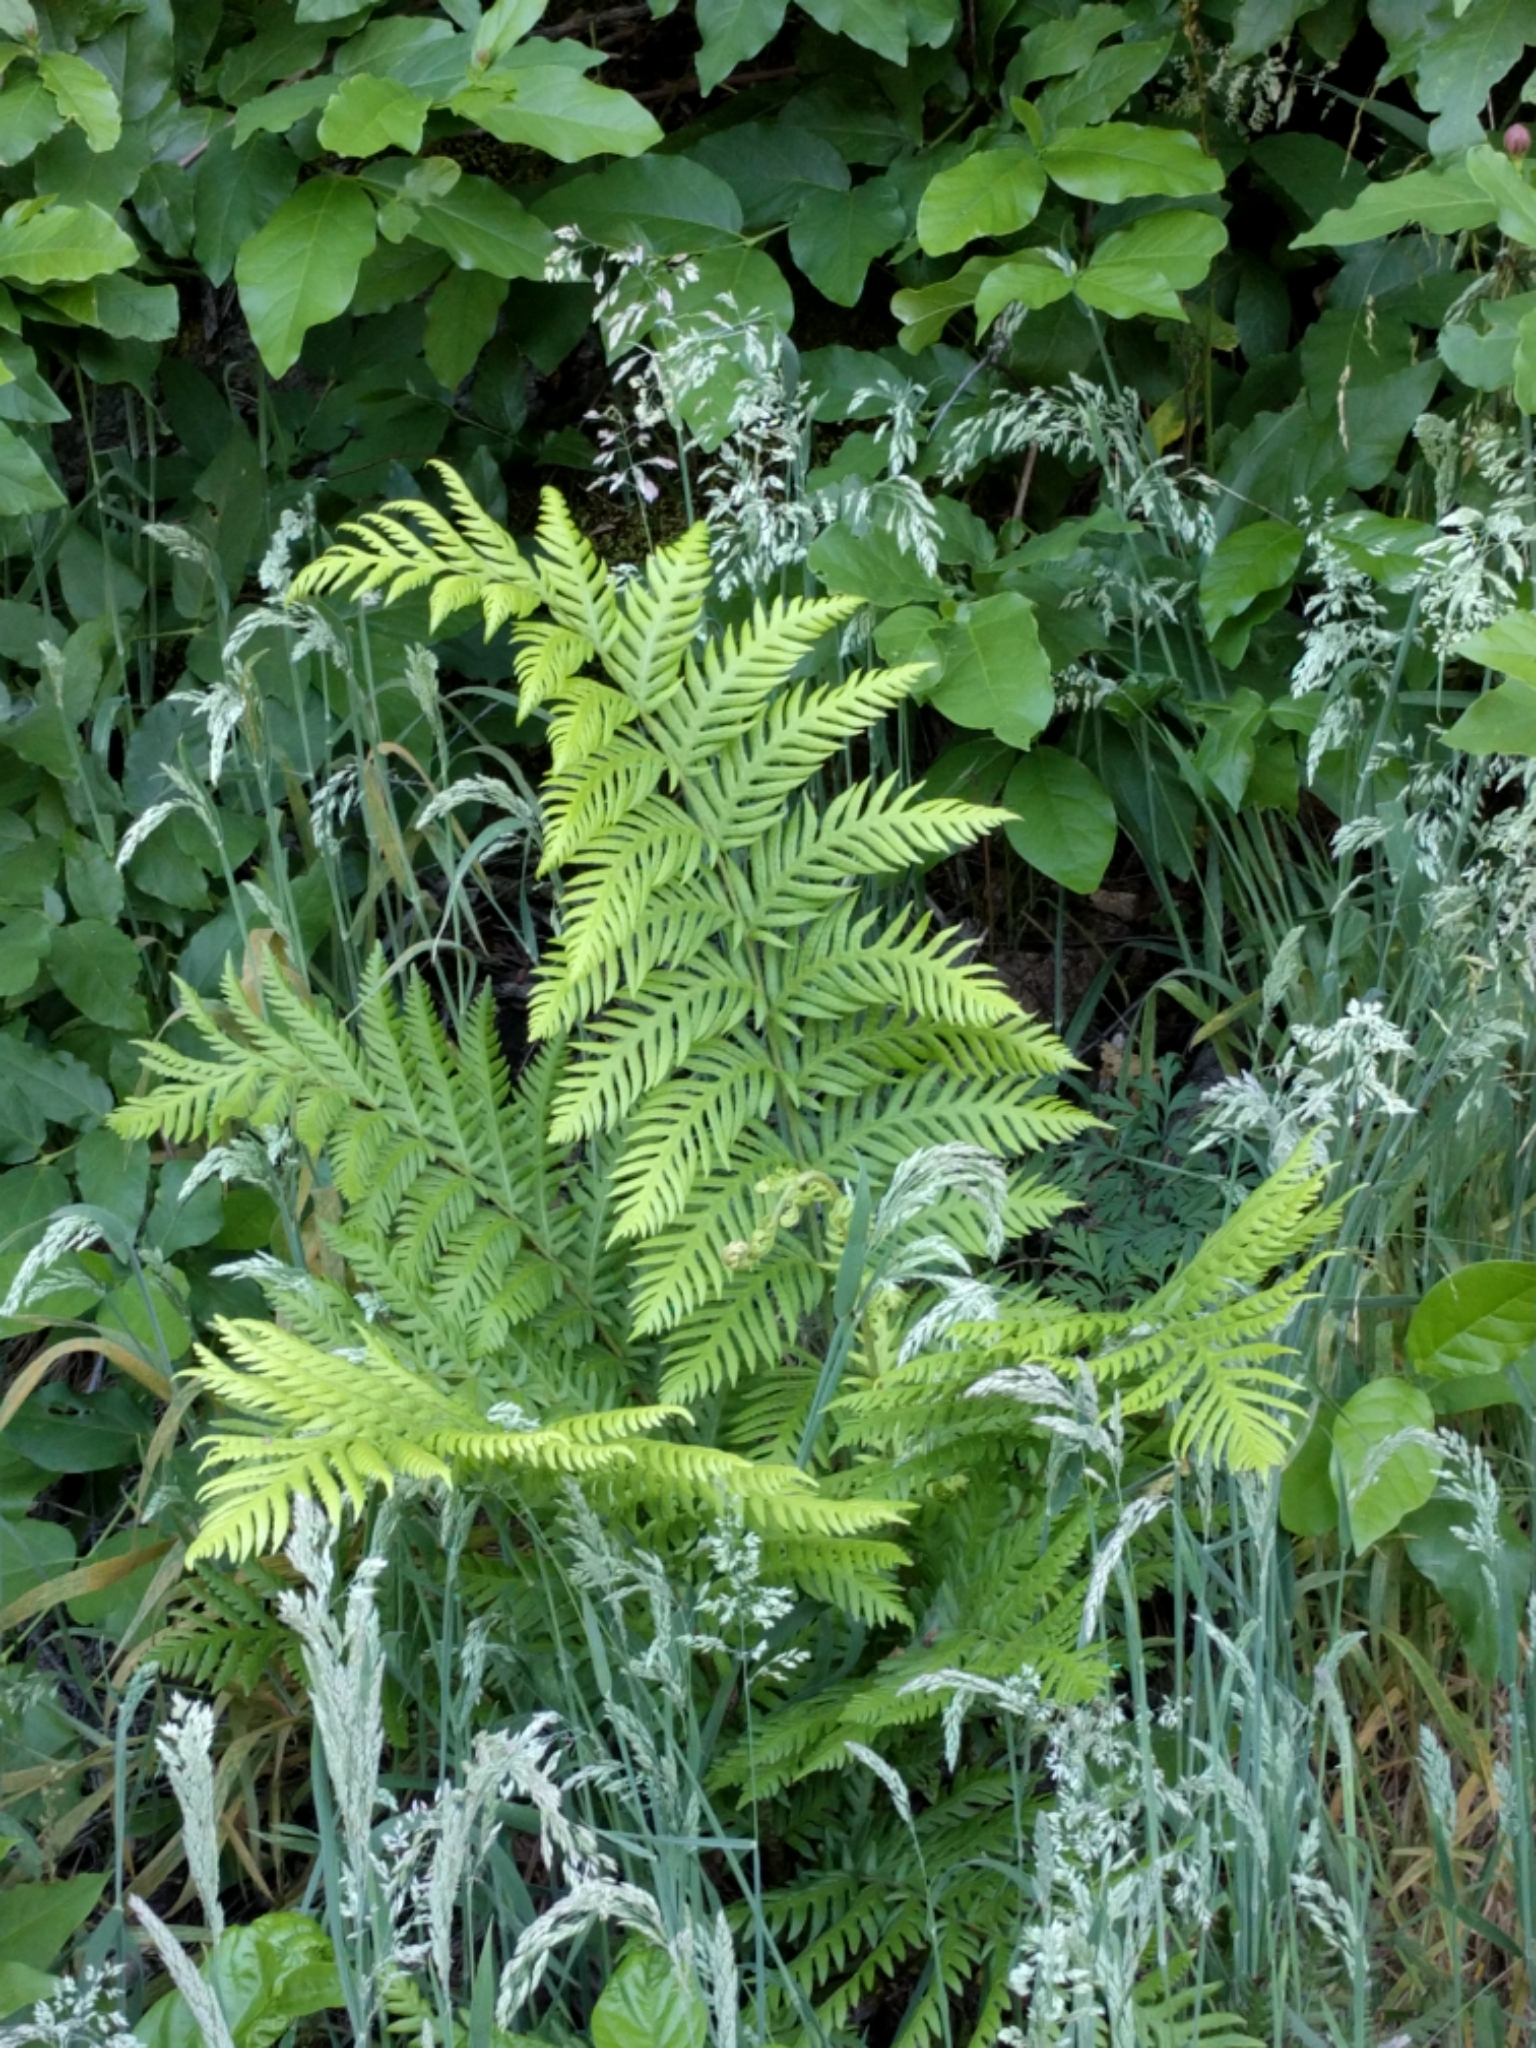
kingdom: Plantae
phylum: Tracheophyta
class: Polypodiopsida
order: Polypodiales
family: Blechnaceae
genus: Woodwardia
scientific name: Woodwardia fimbriata
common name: Giant chain fern
